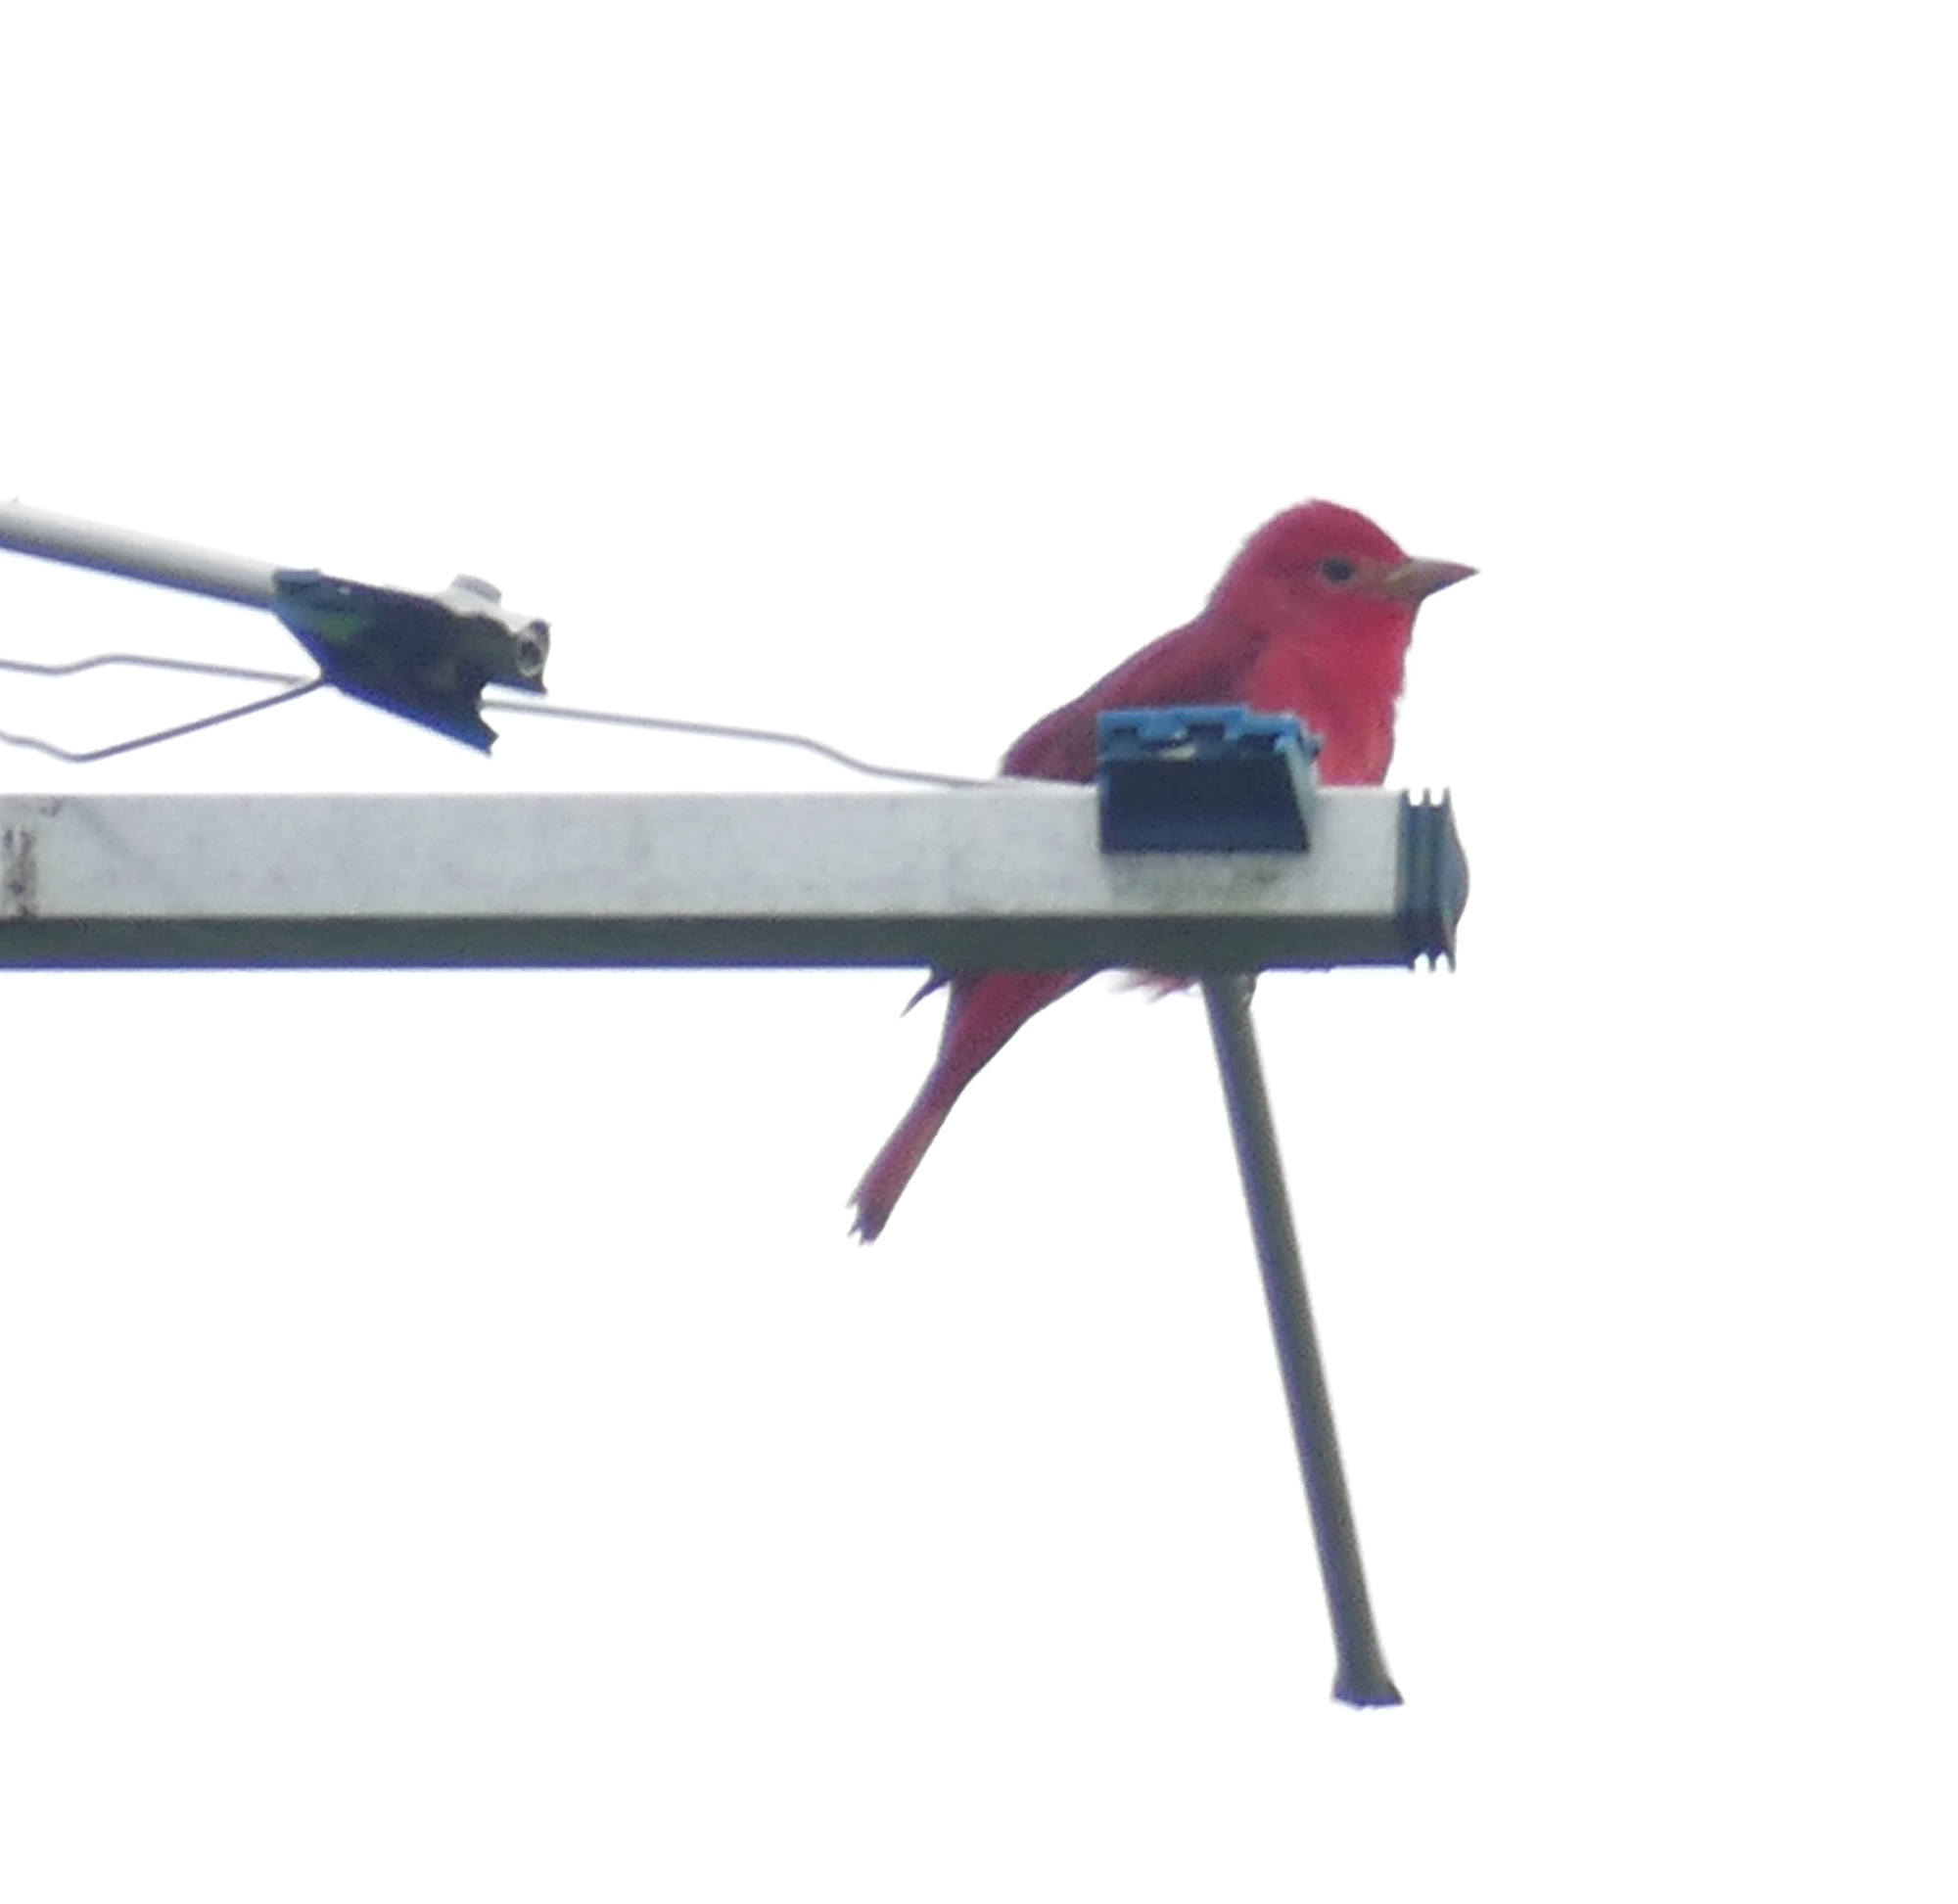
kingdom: Animalia
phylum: Chordata
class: Aves
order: Passeriformes
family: Cardinalidae
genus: Piranga
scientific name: Piranga rubra
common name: Summer tanager
